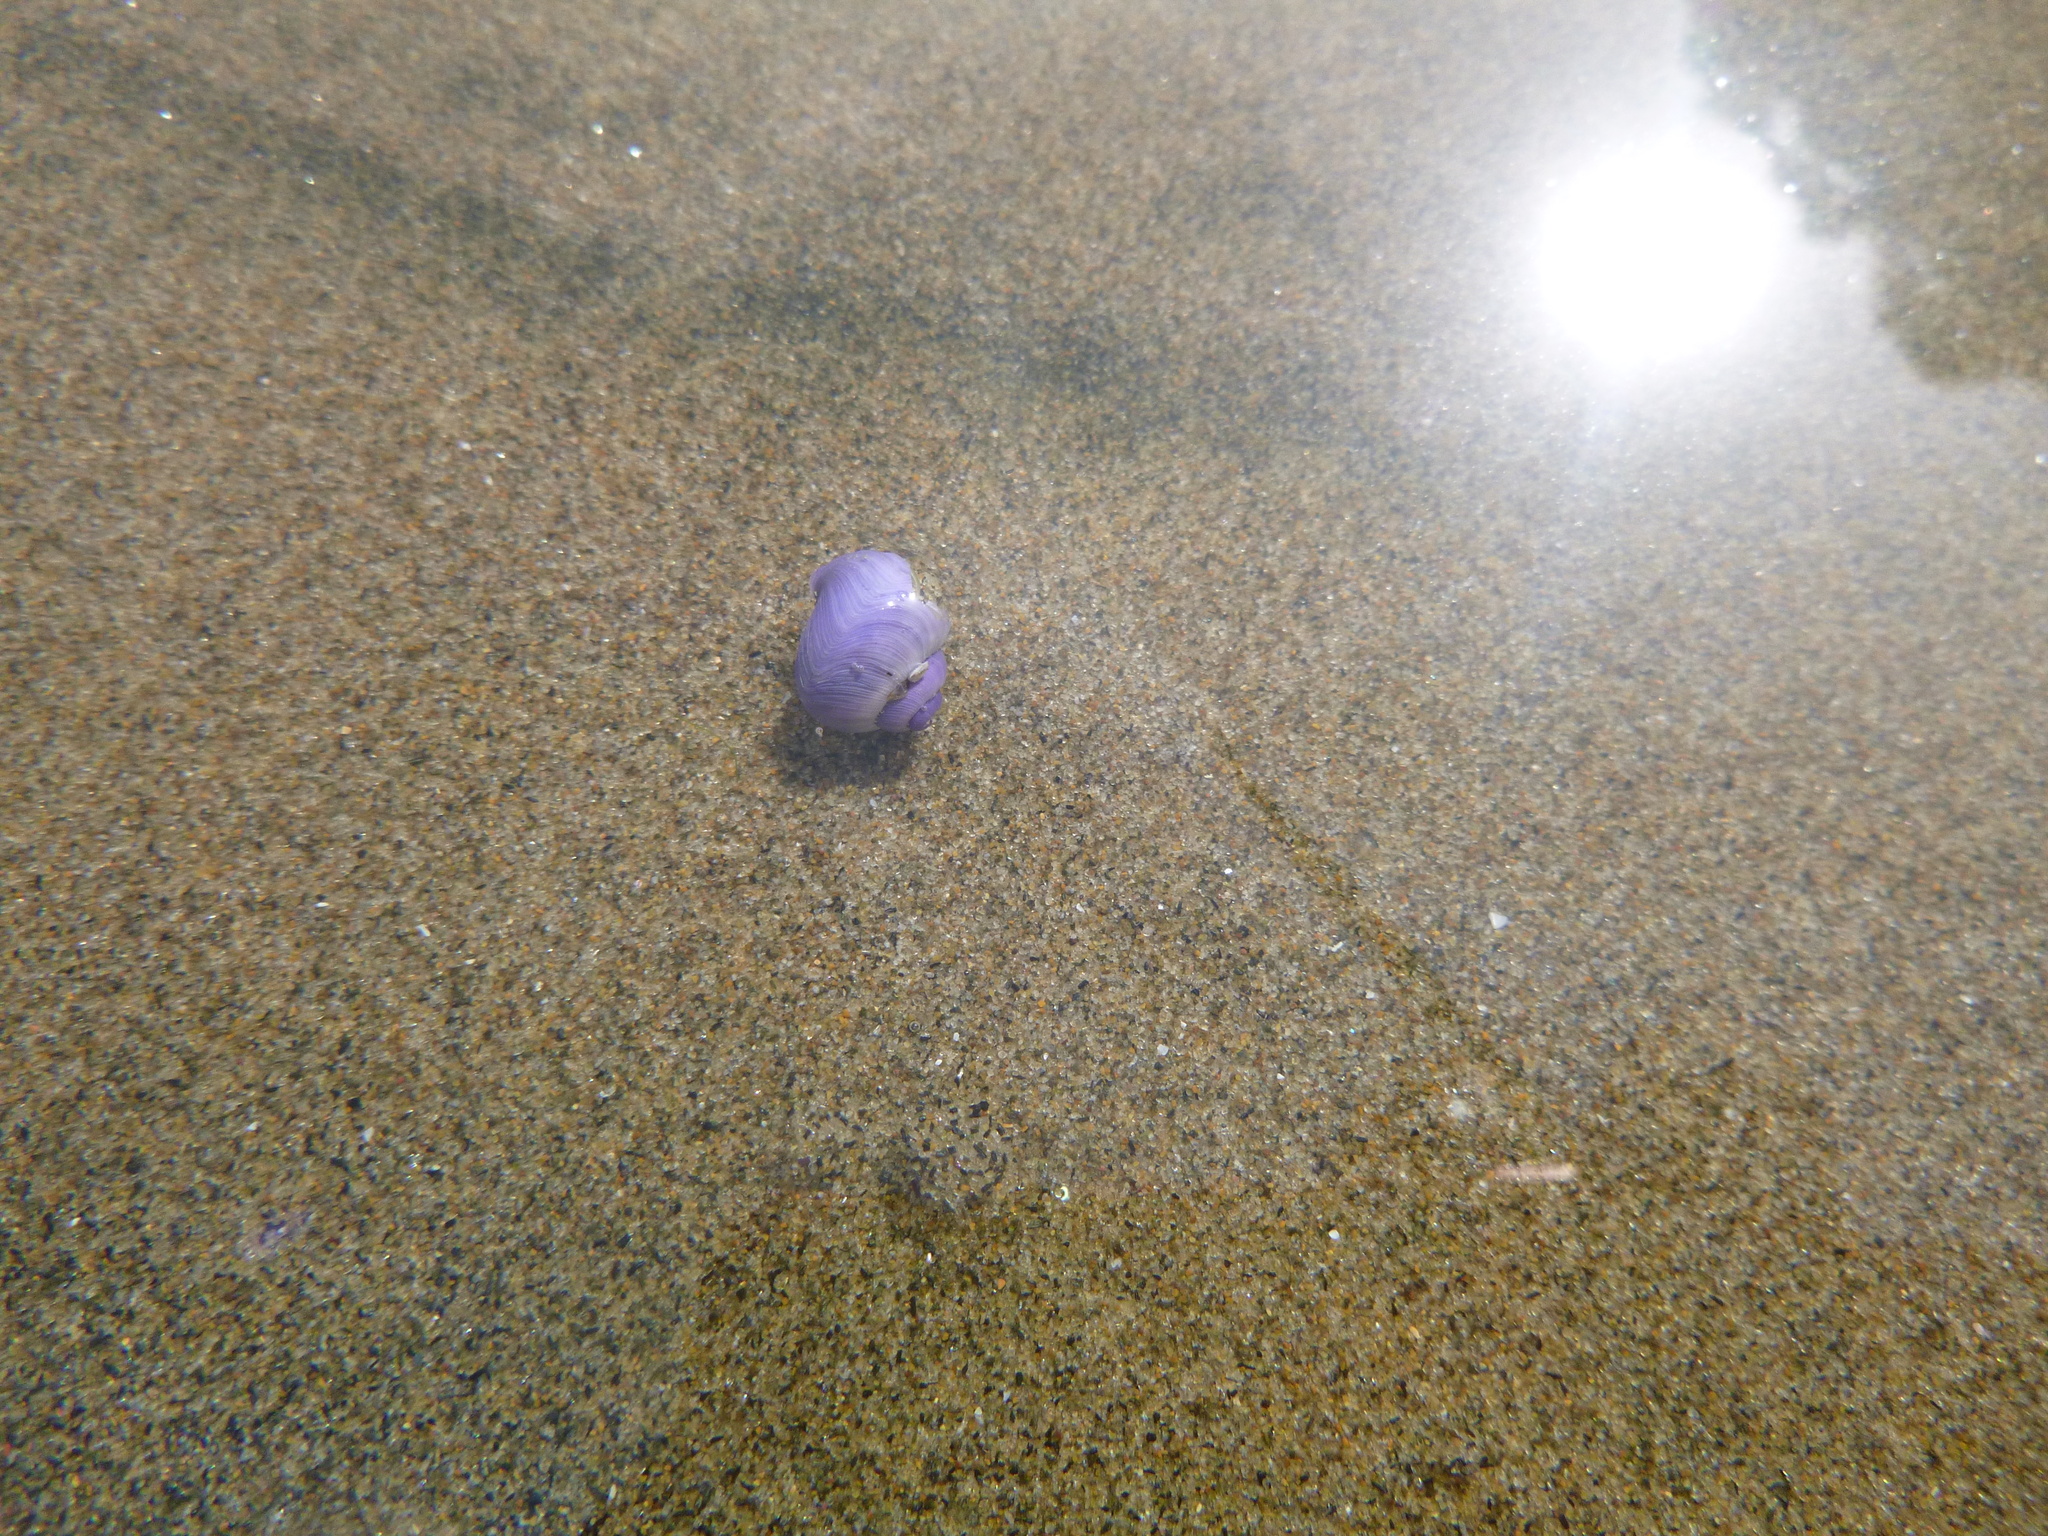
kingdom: Animalia
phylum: Mollusca
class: Gastropoda
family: Epitoniidae
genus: Janthina
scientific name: Janthina exigua
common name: Dwarf janthina
